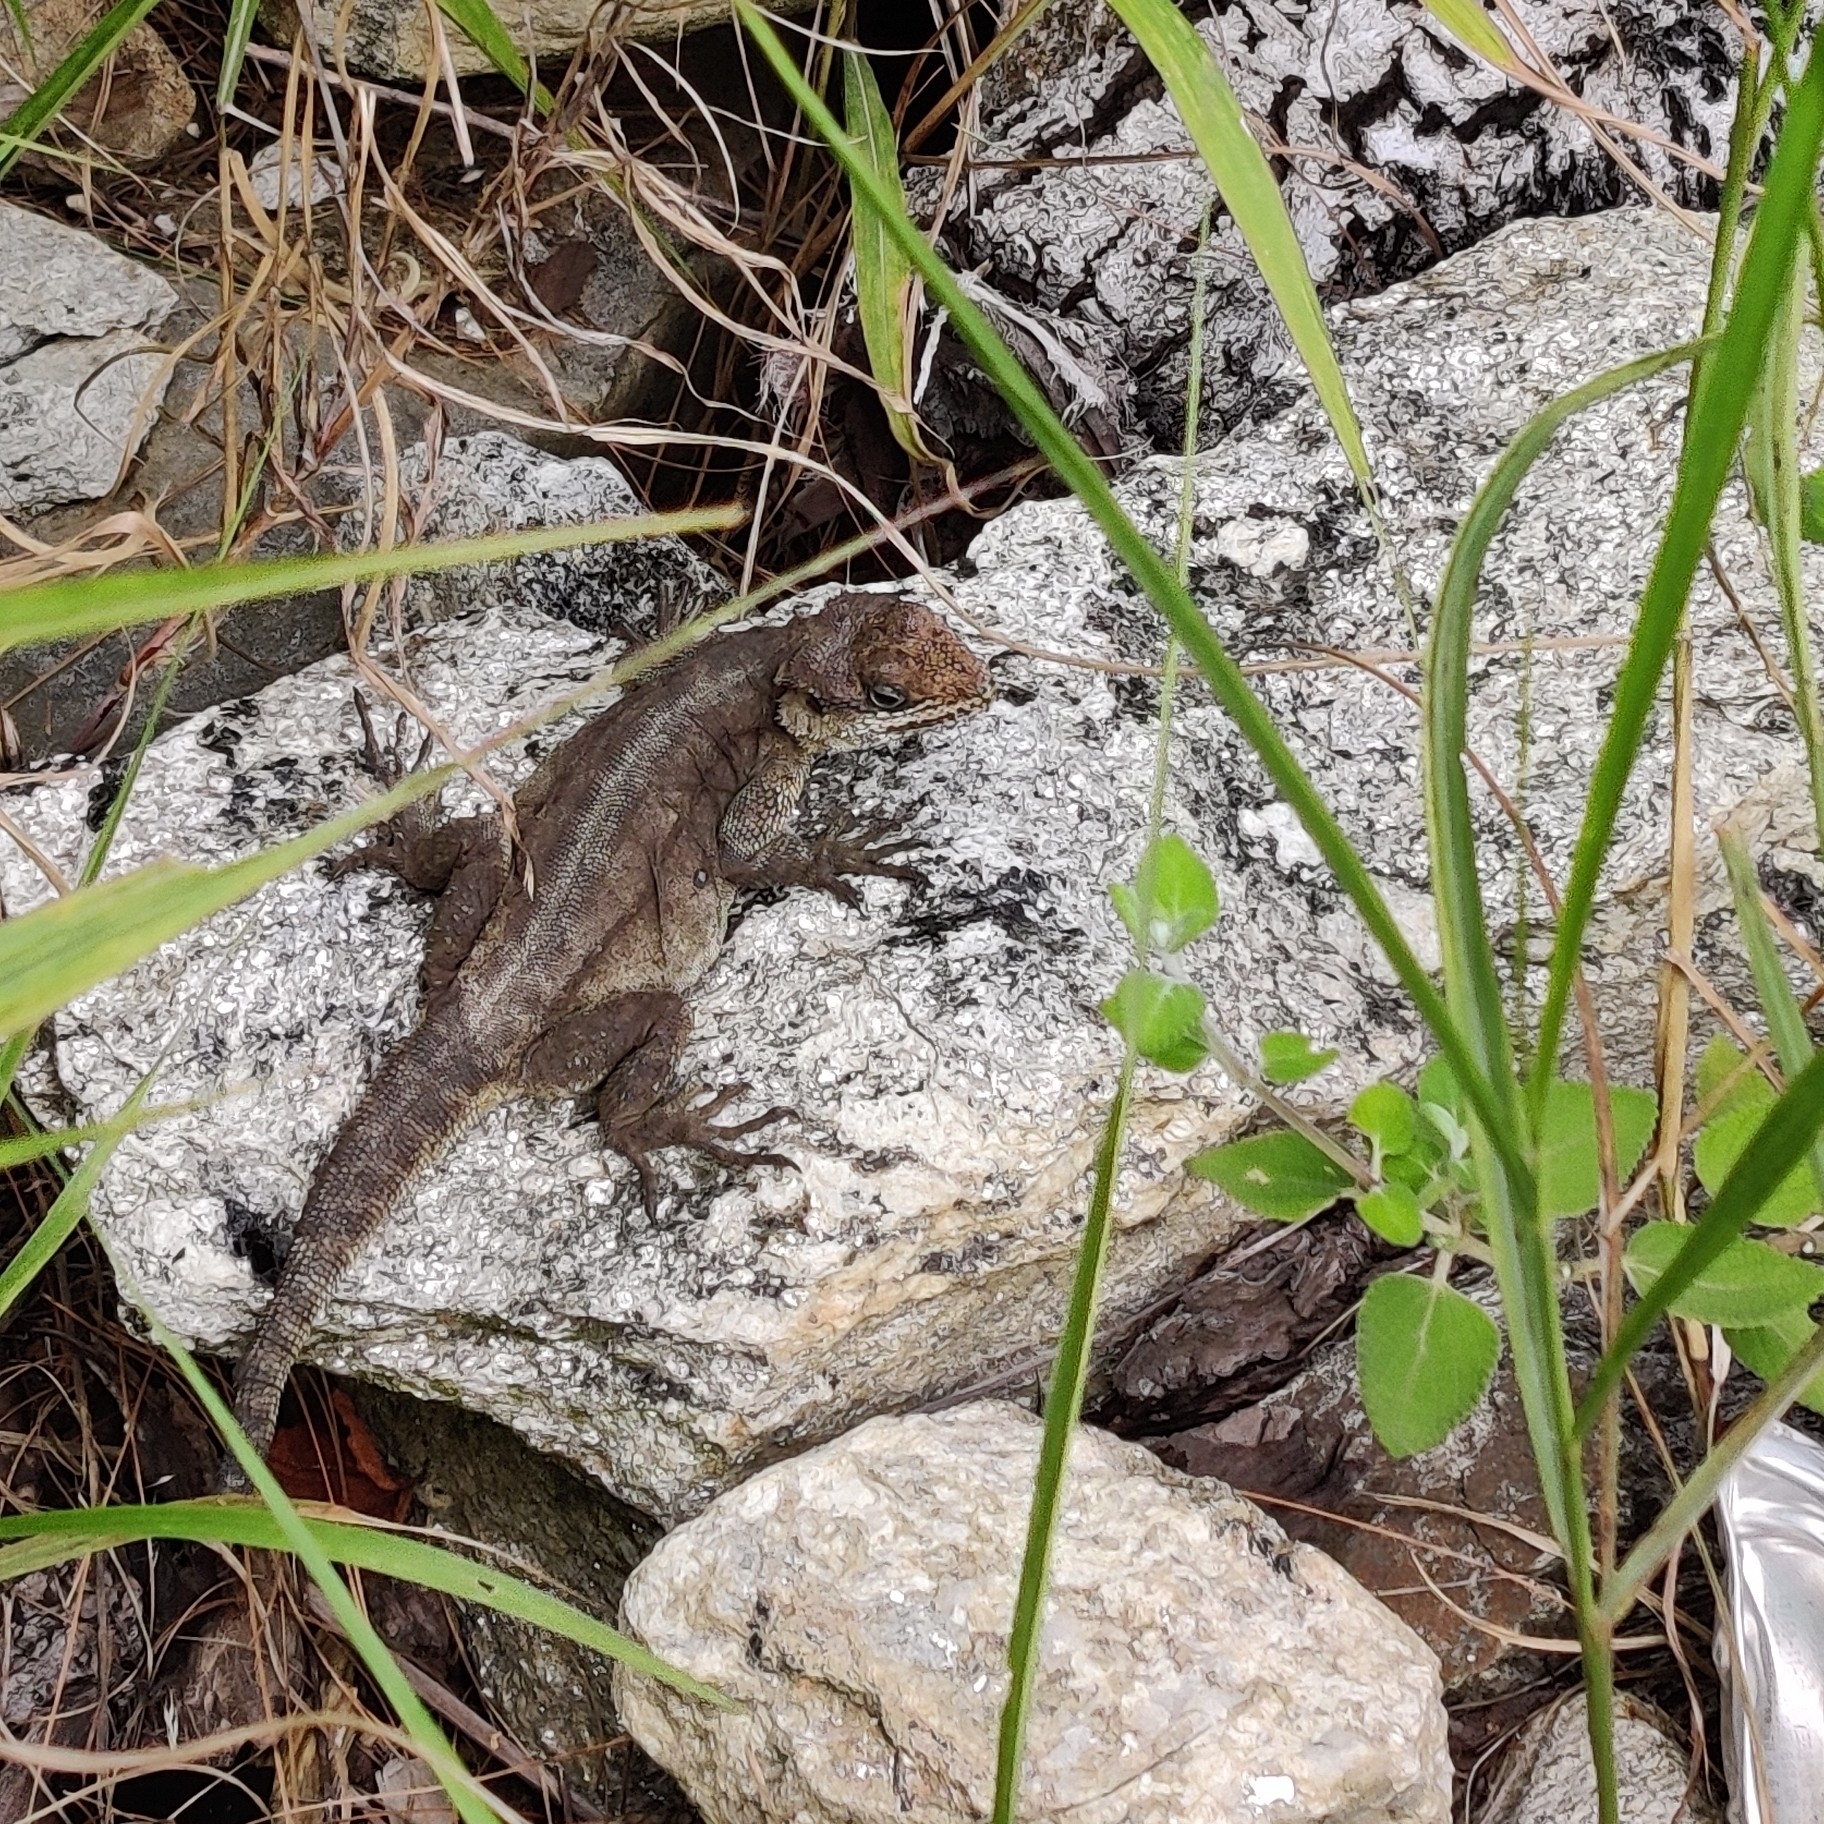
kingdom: Animalia
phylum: Chordata
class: Squamata
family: Agamidae
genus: Laudakia
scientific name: Laudakia tuberculata
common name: Kashmir rock agama
